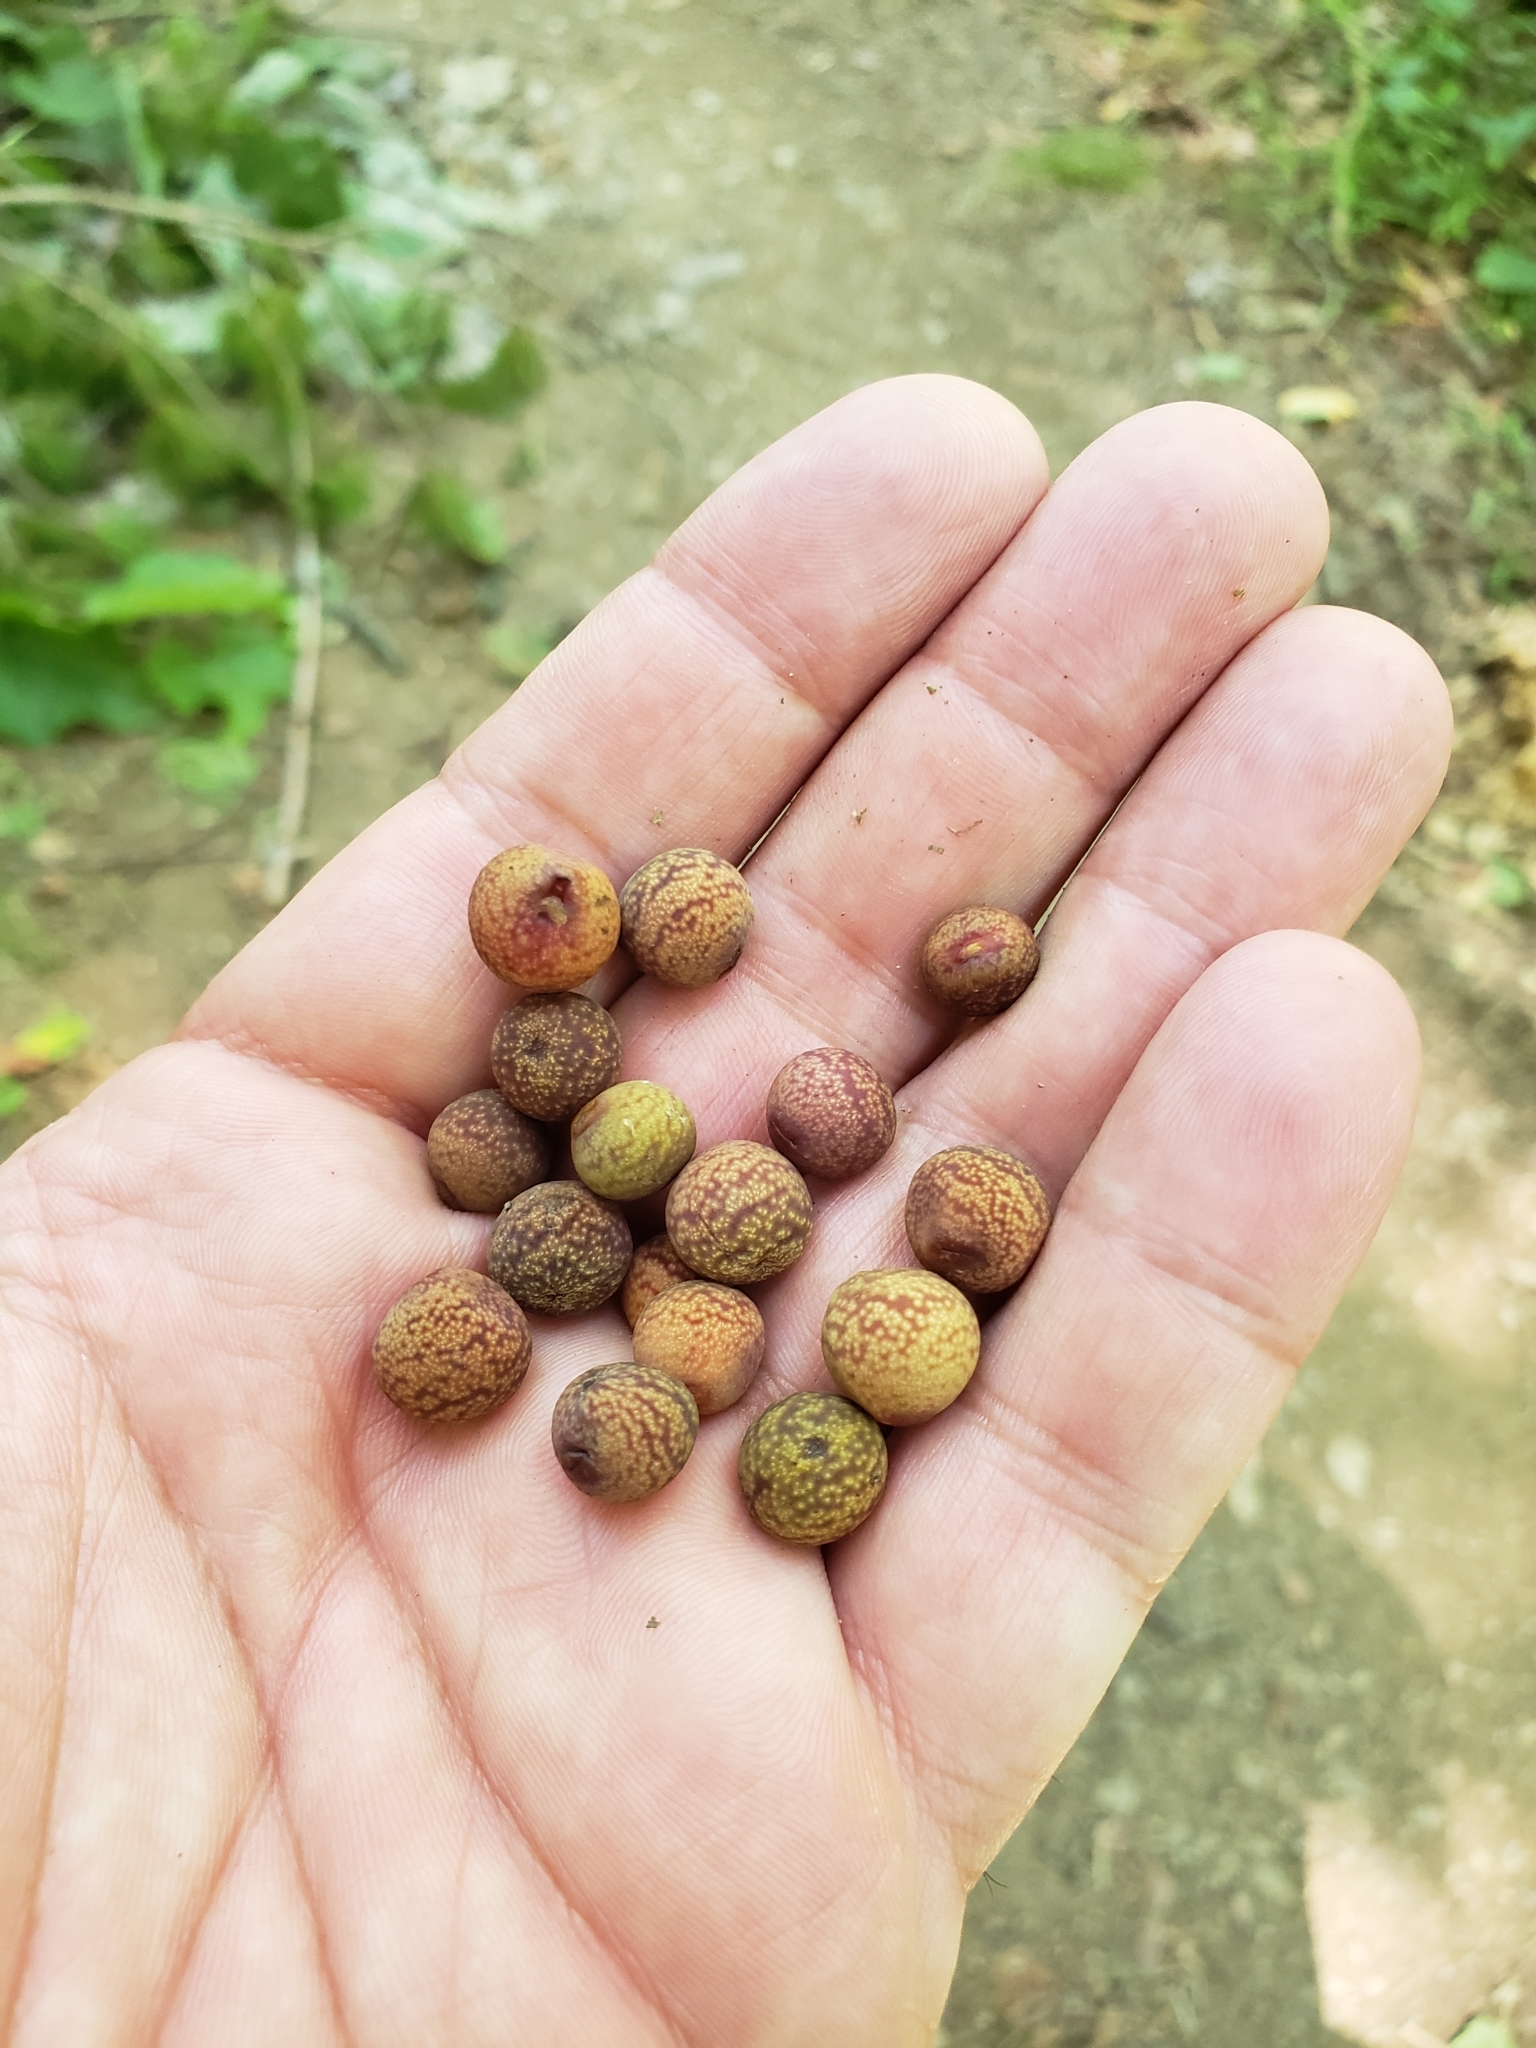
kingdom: Animalia
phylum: Arthropoda
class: Insecta
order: Hymenoptera
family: Cynipidae
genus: Kokkocynips
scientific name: Kokkocynips imbricariae
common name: Banded bullet gall wasp
